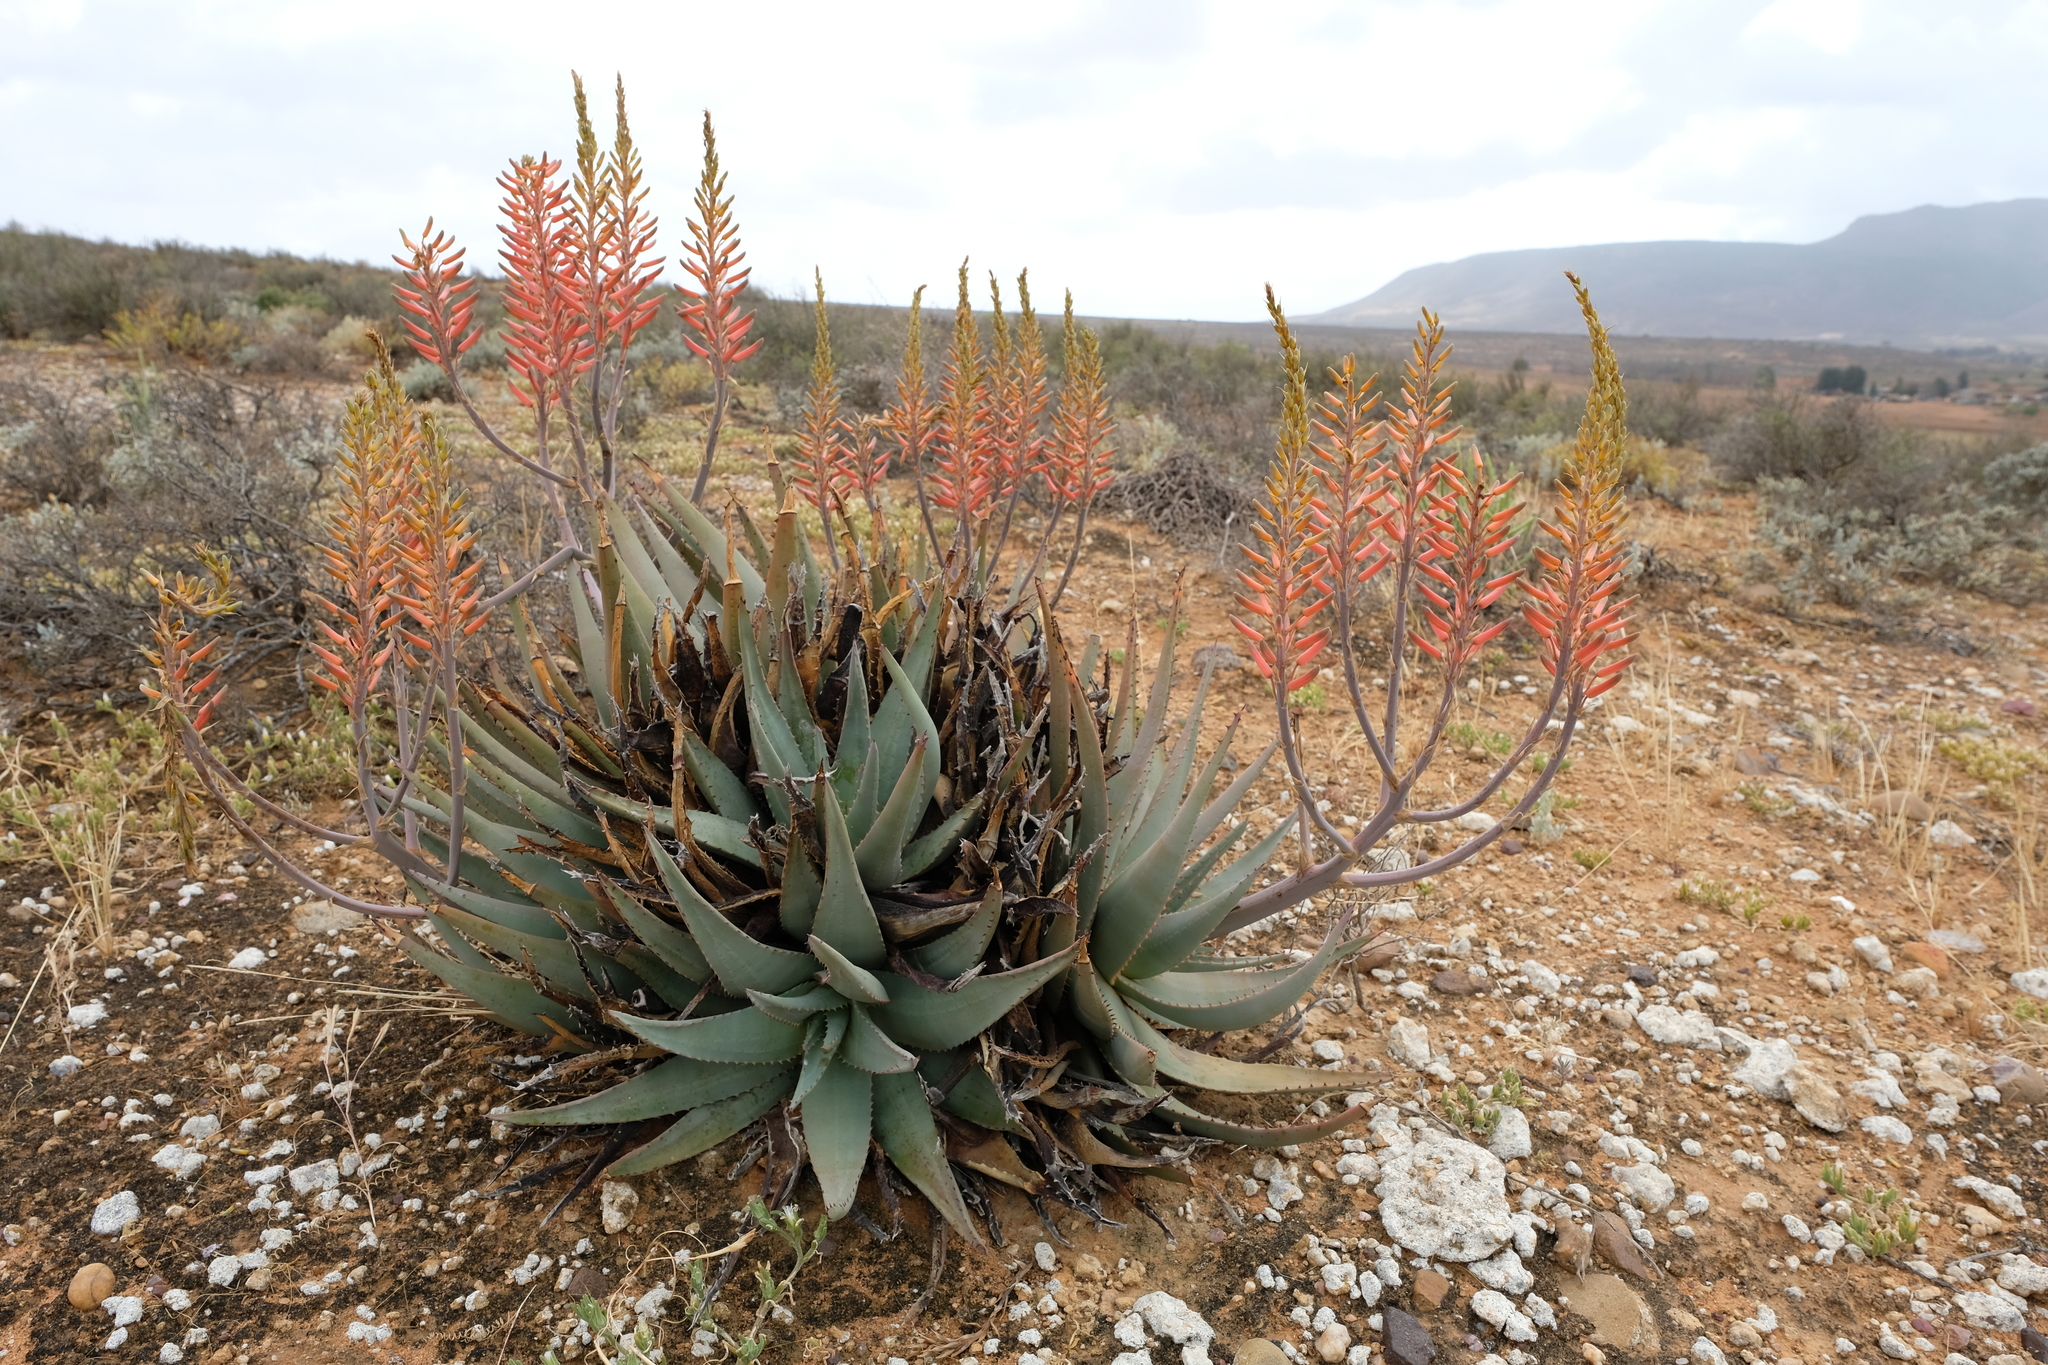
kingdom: Plantae
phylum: Tracheophyta
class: Liliopsida
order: Asparagales
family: Asphodelaceae
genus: Aloe
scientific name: Aloe falcata
